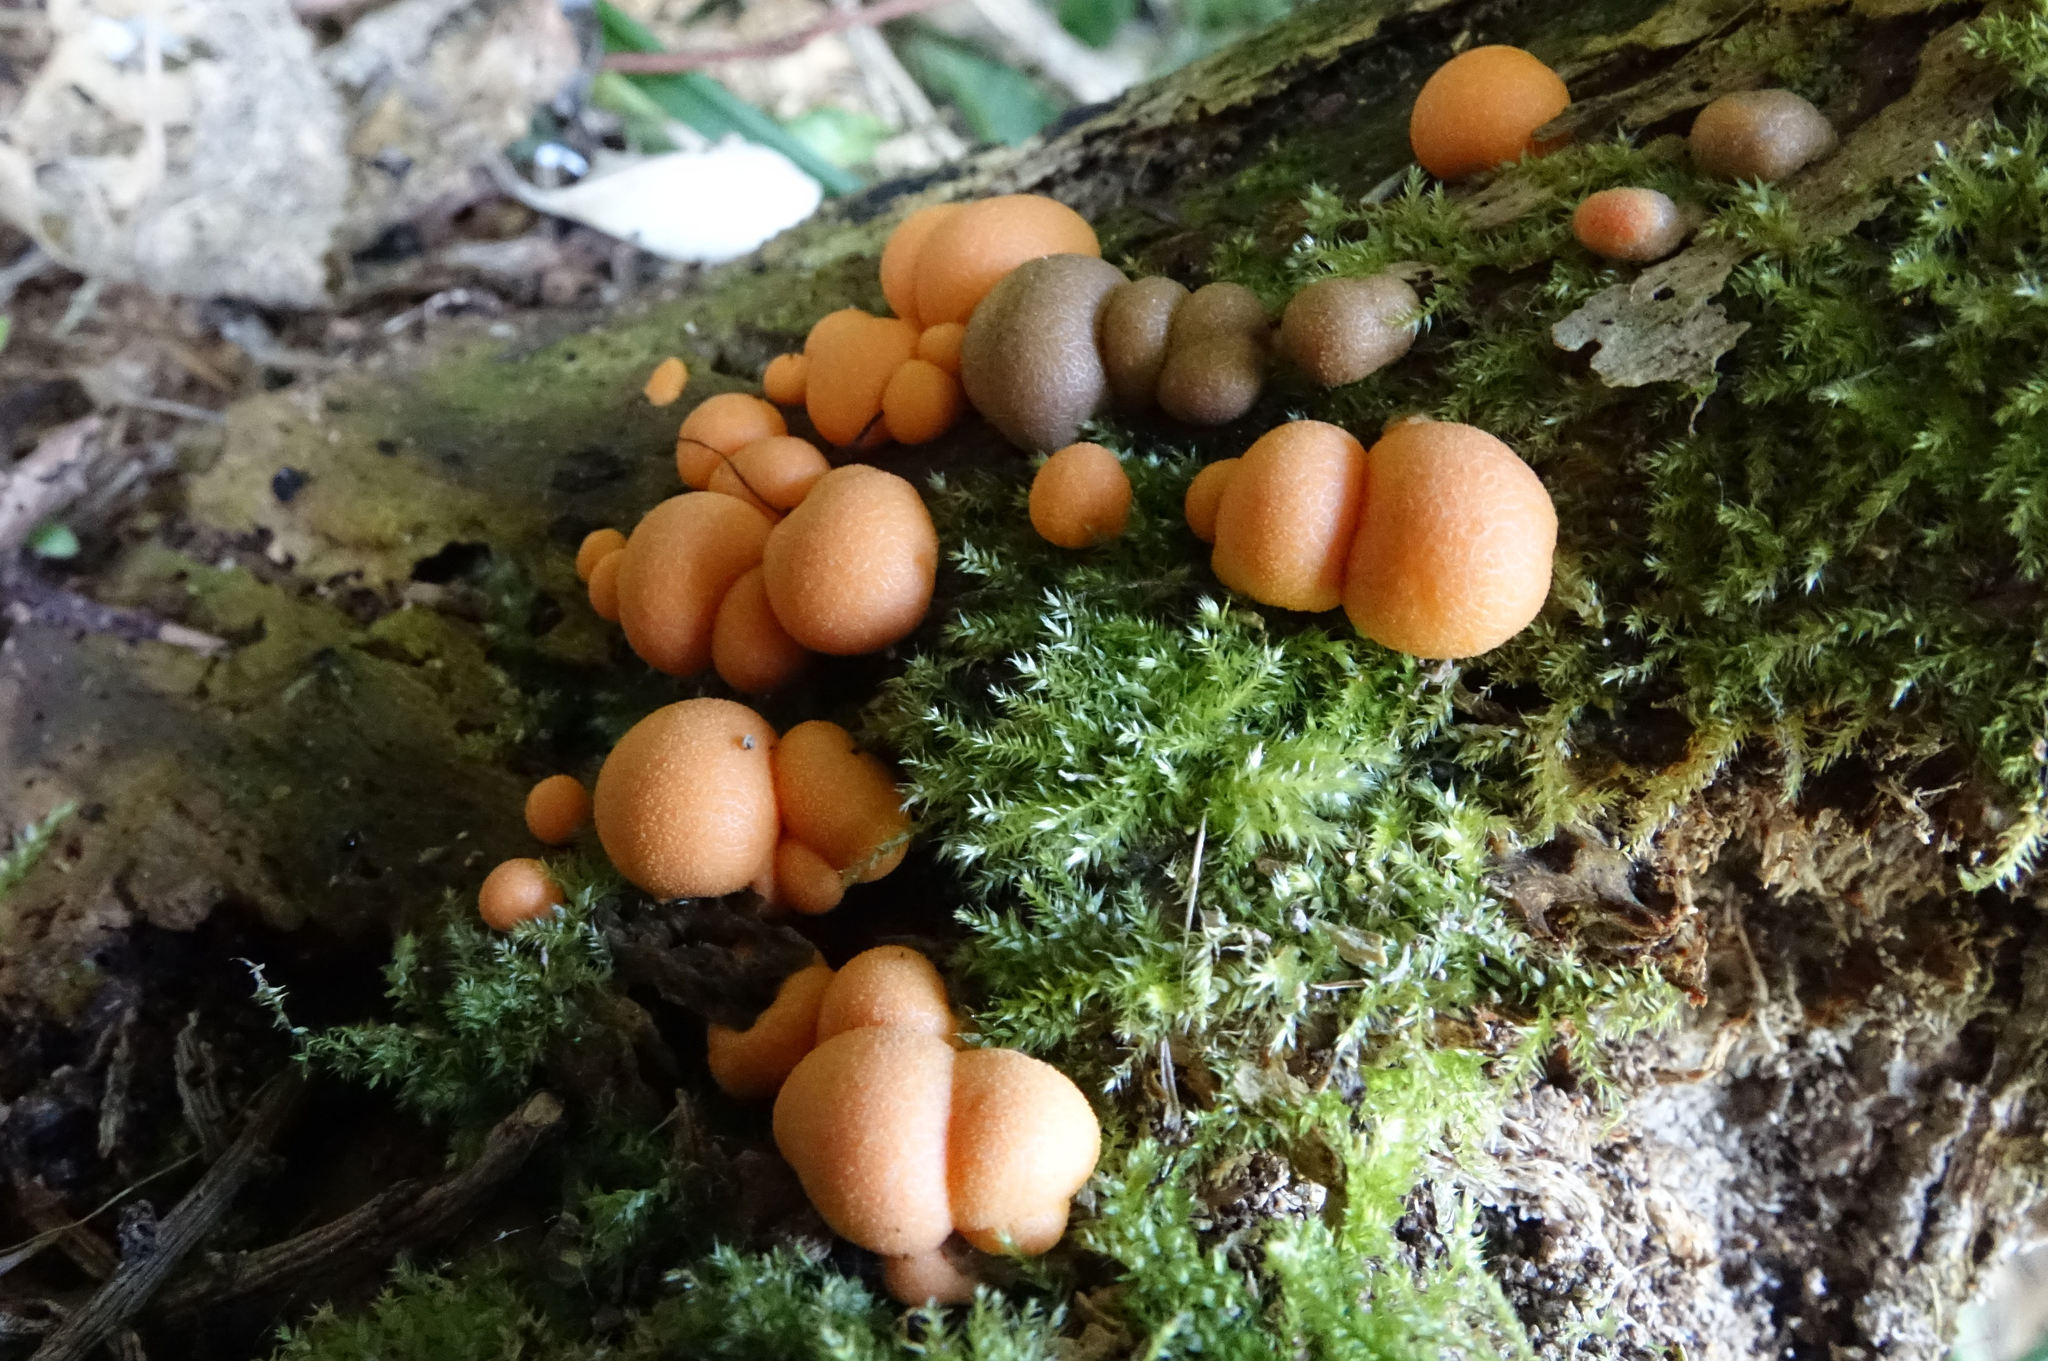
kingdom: Protozoa
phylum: Mycetozoa
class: Myxomycetes
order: Cribrariales
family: Tubiferaceae
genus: Lycogala
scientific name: Lycogala epidendrum
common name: Wolf's milk
